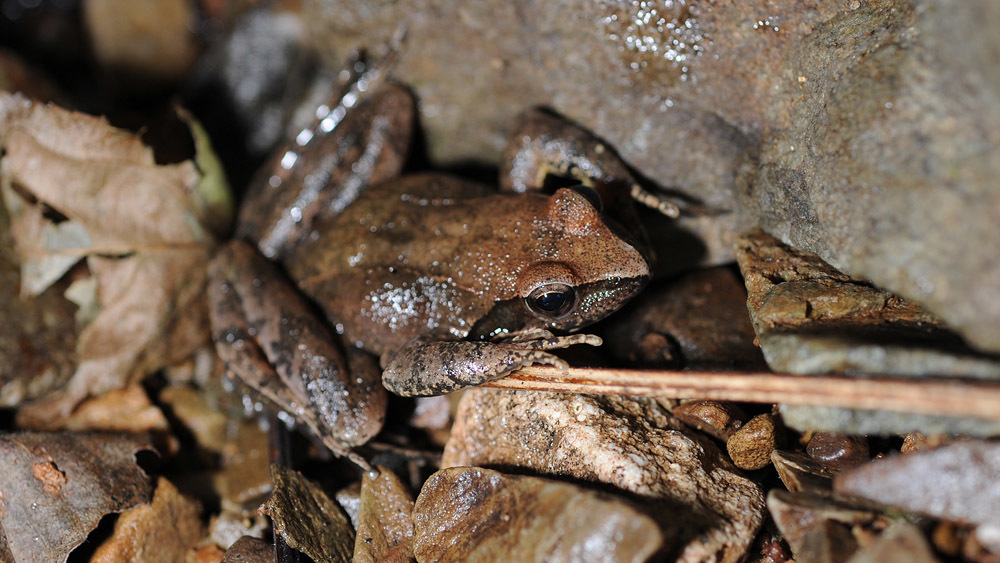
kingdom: Animalia
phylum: Chordata
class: Amphibia
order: Anura
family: Ranidae
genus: Rana
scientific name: Rana huanrenensis
